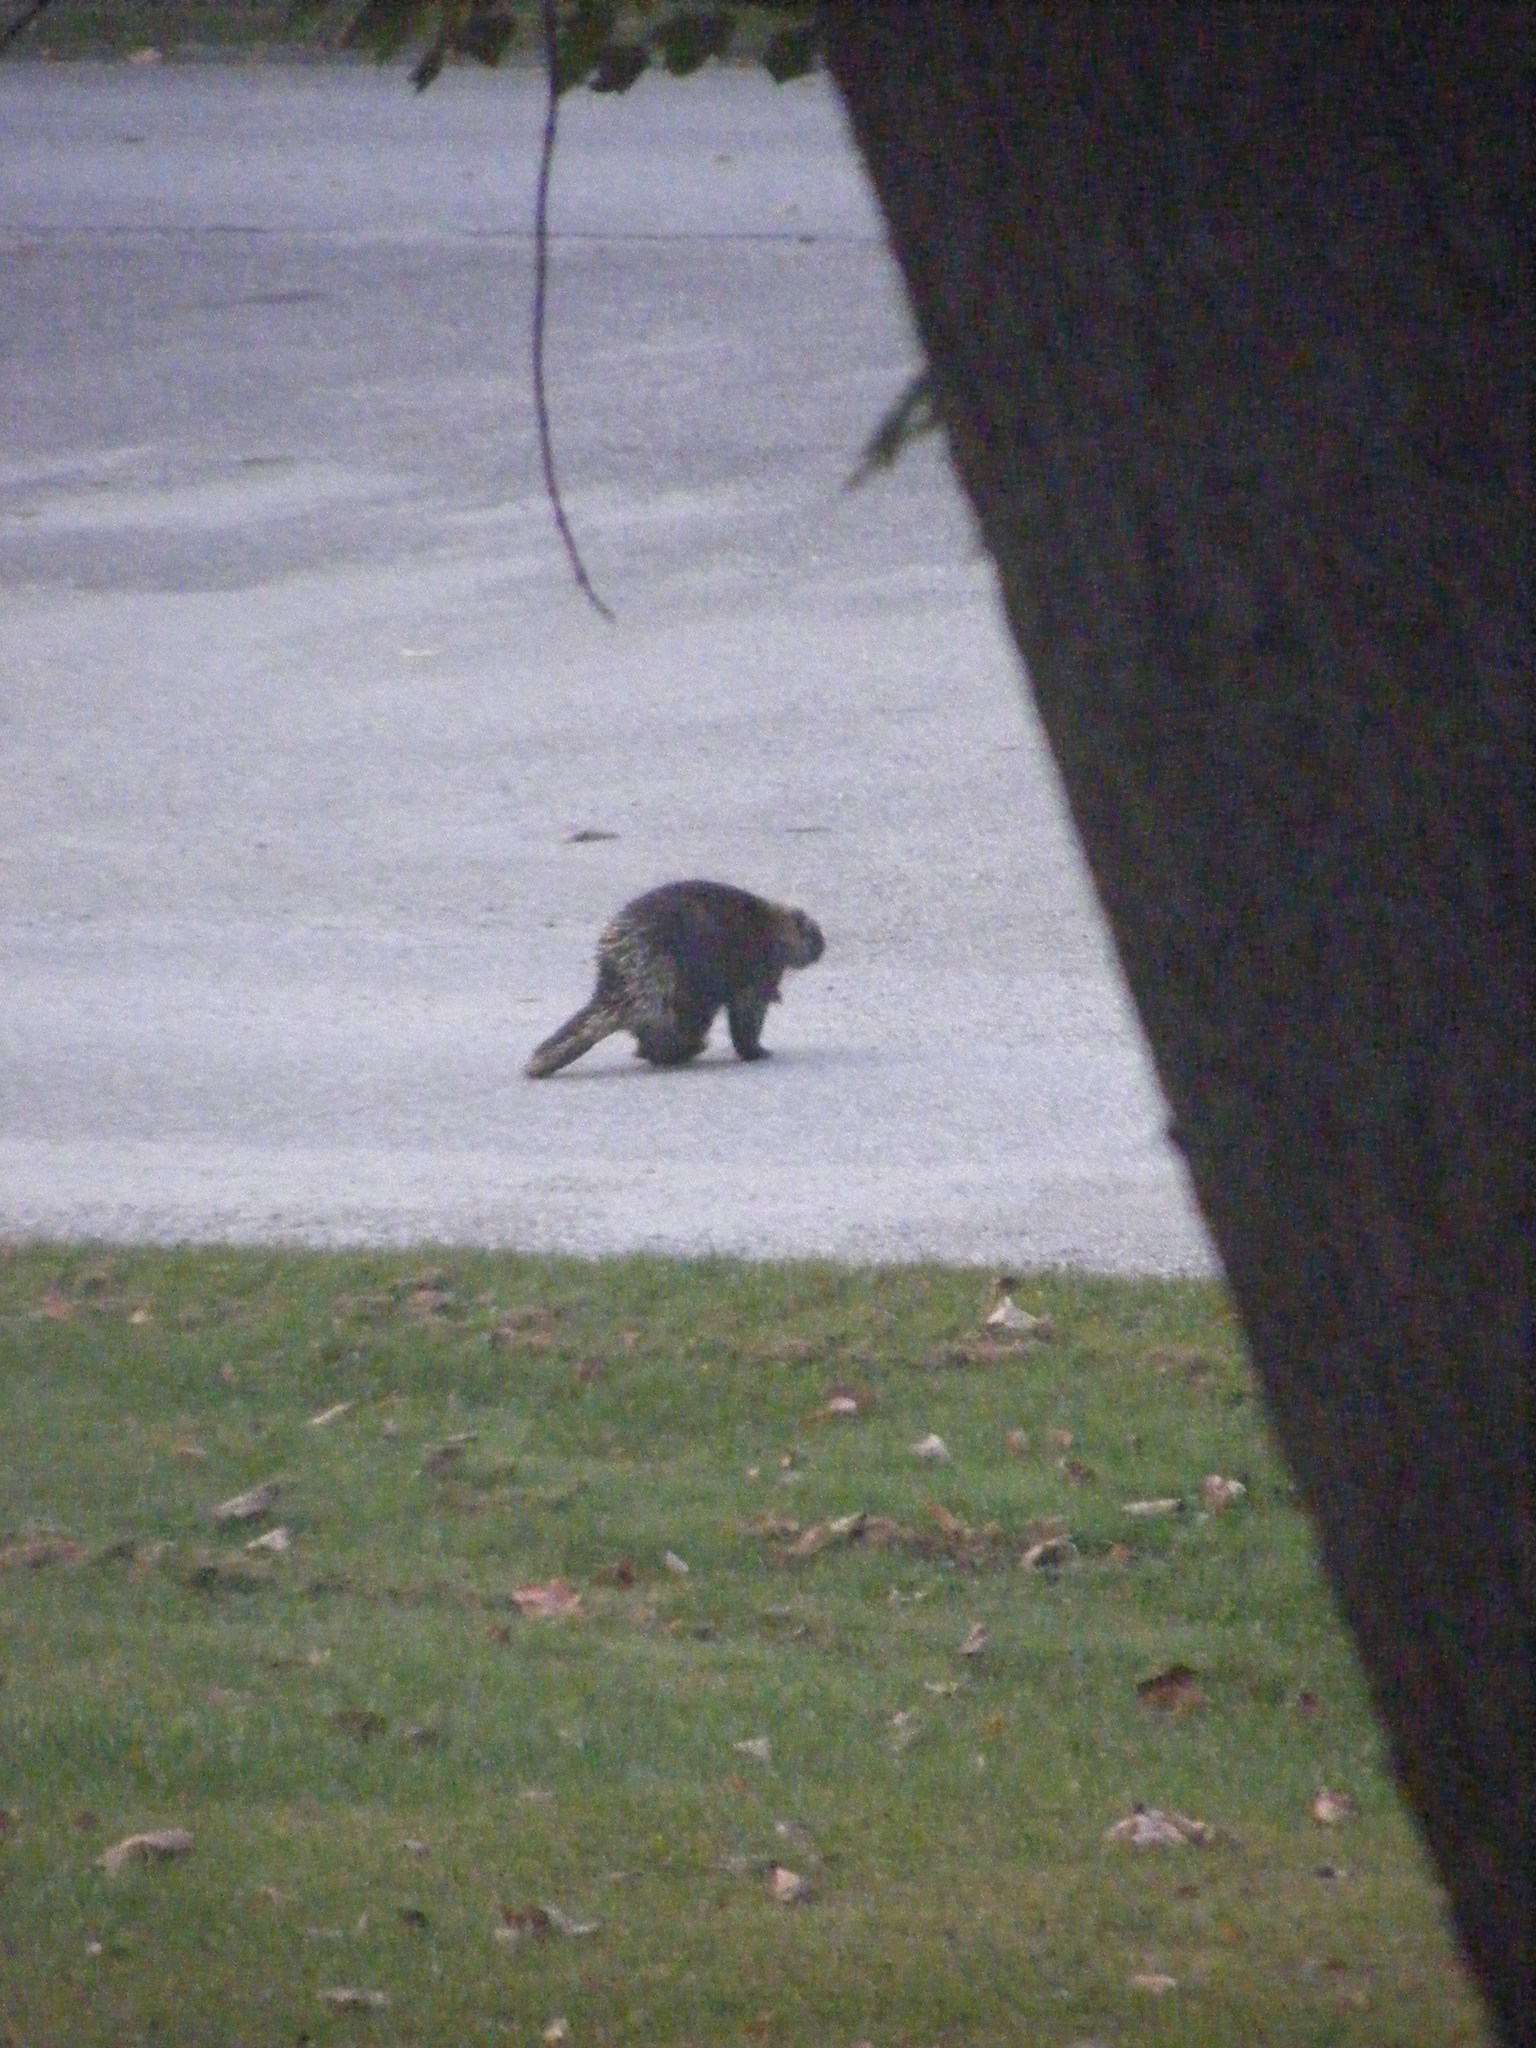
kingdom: Animalia
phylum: Chordata
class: Mammalia
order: Rodentia
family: Erethizontidae
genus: Erethizon
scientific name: Erethizon dorsatus
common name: North american porcupine
